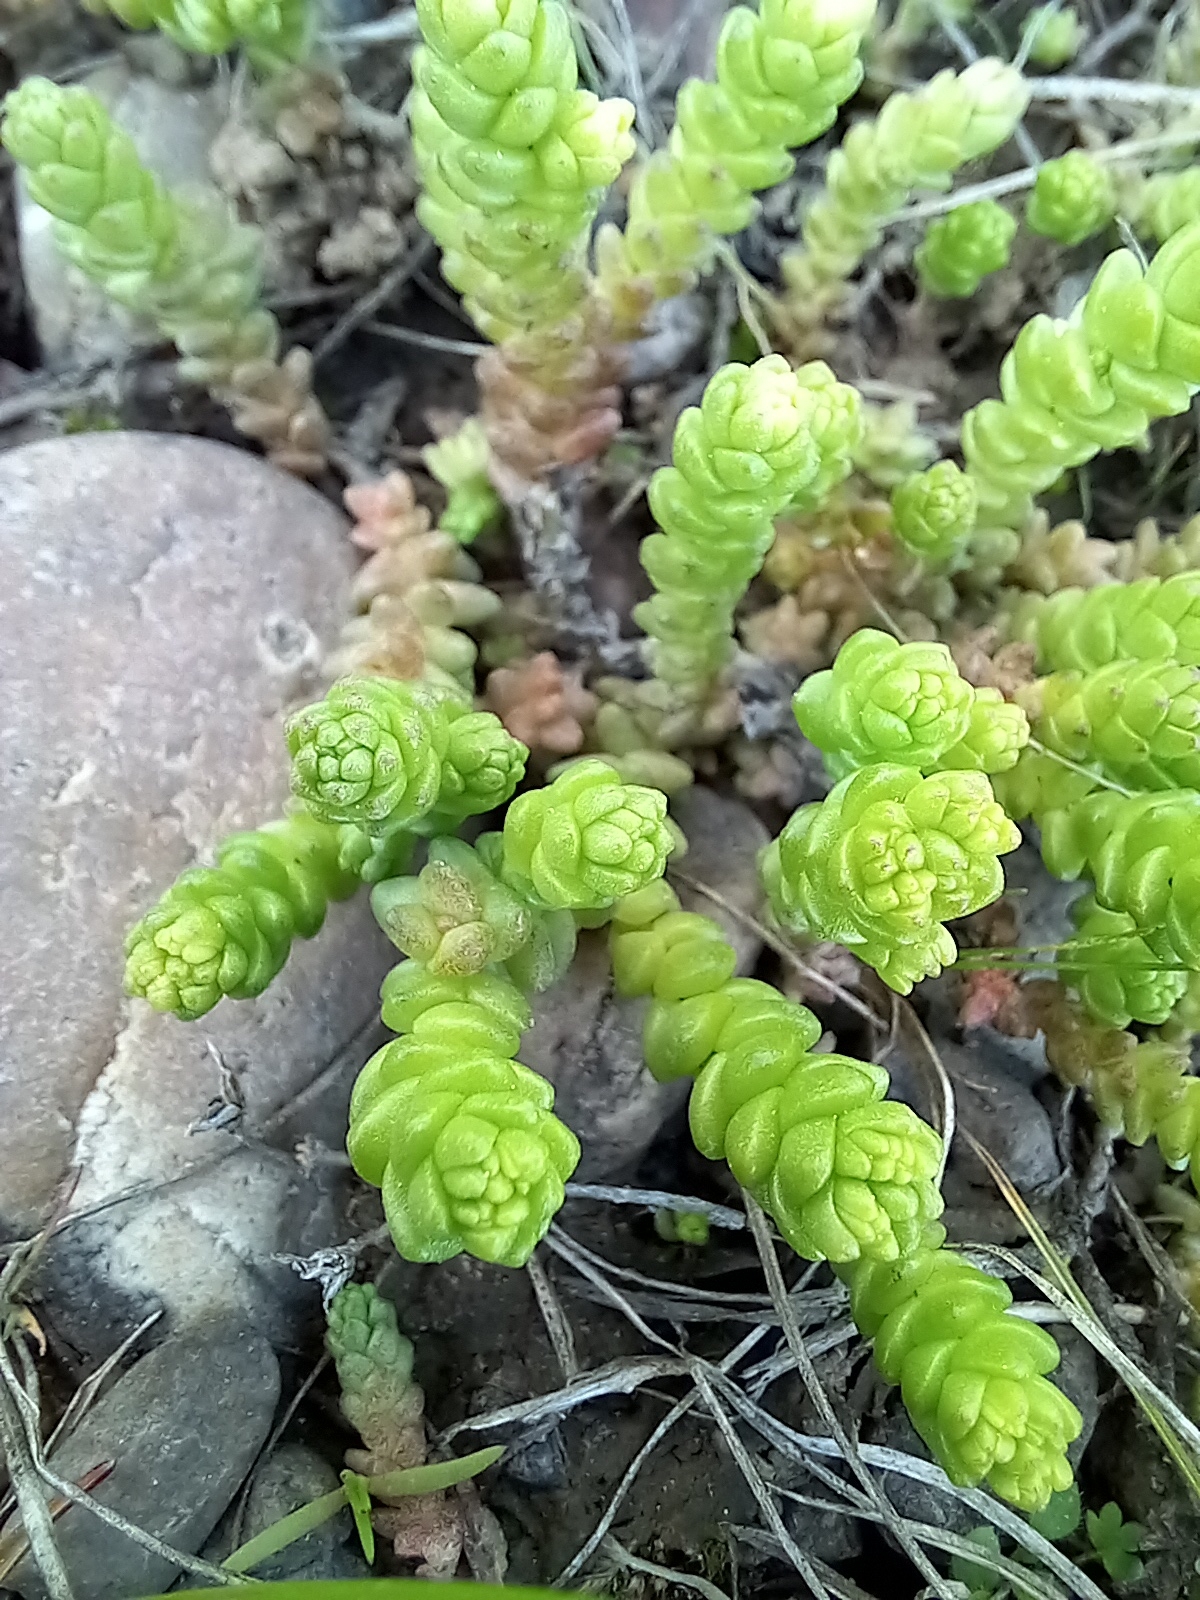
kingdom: Plantae
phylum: Tracheophyta
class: Magnoliopsida
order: Saxifragales
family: Crassulaceae
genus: Sedum
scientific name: Sedum acre
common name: Biting stonecrop
